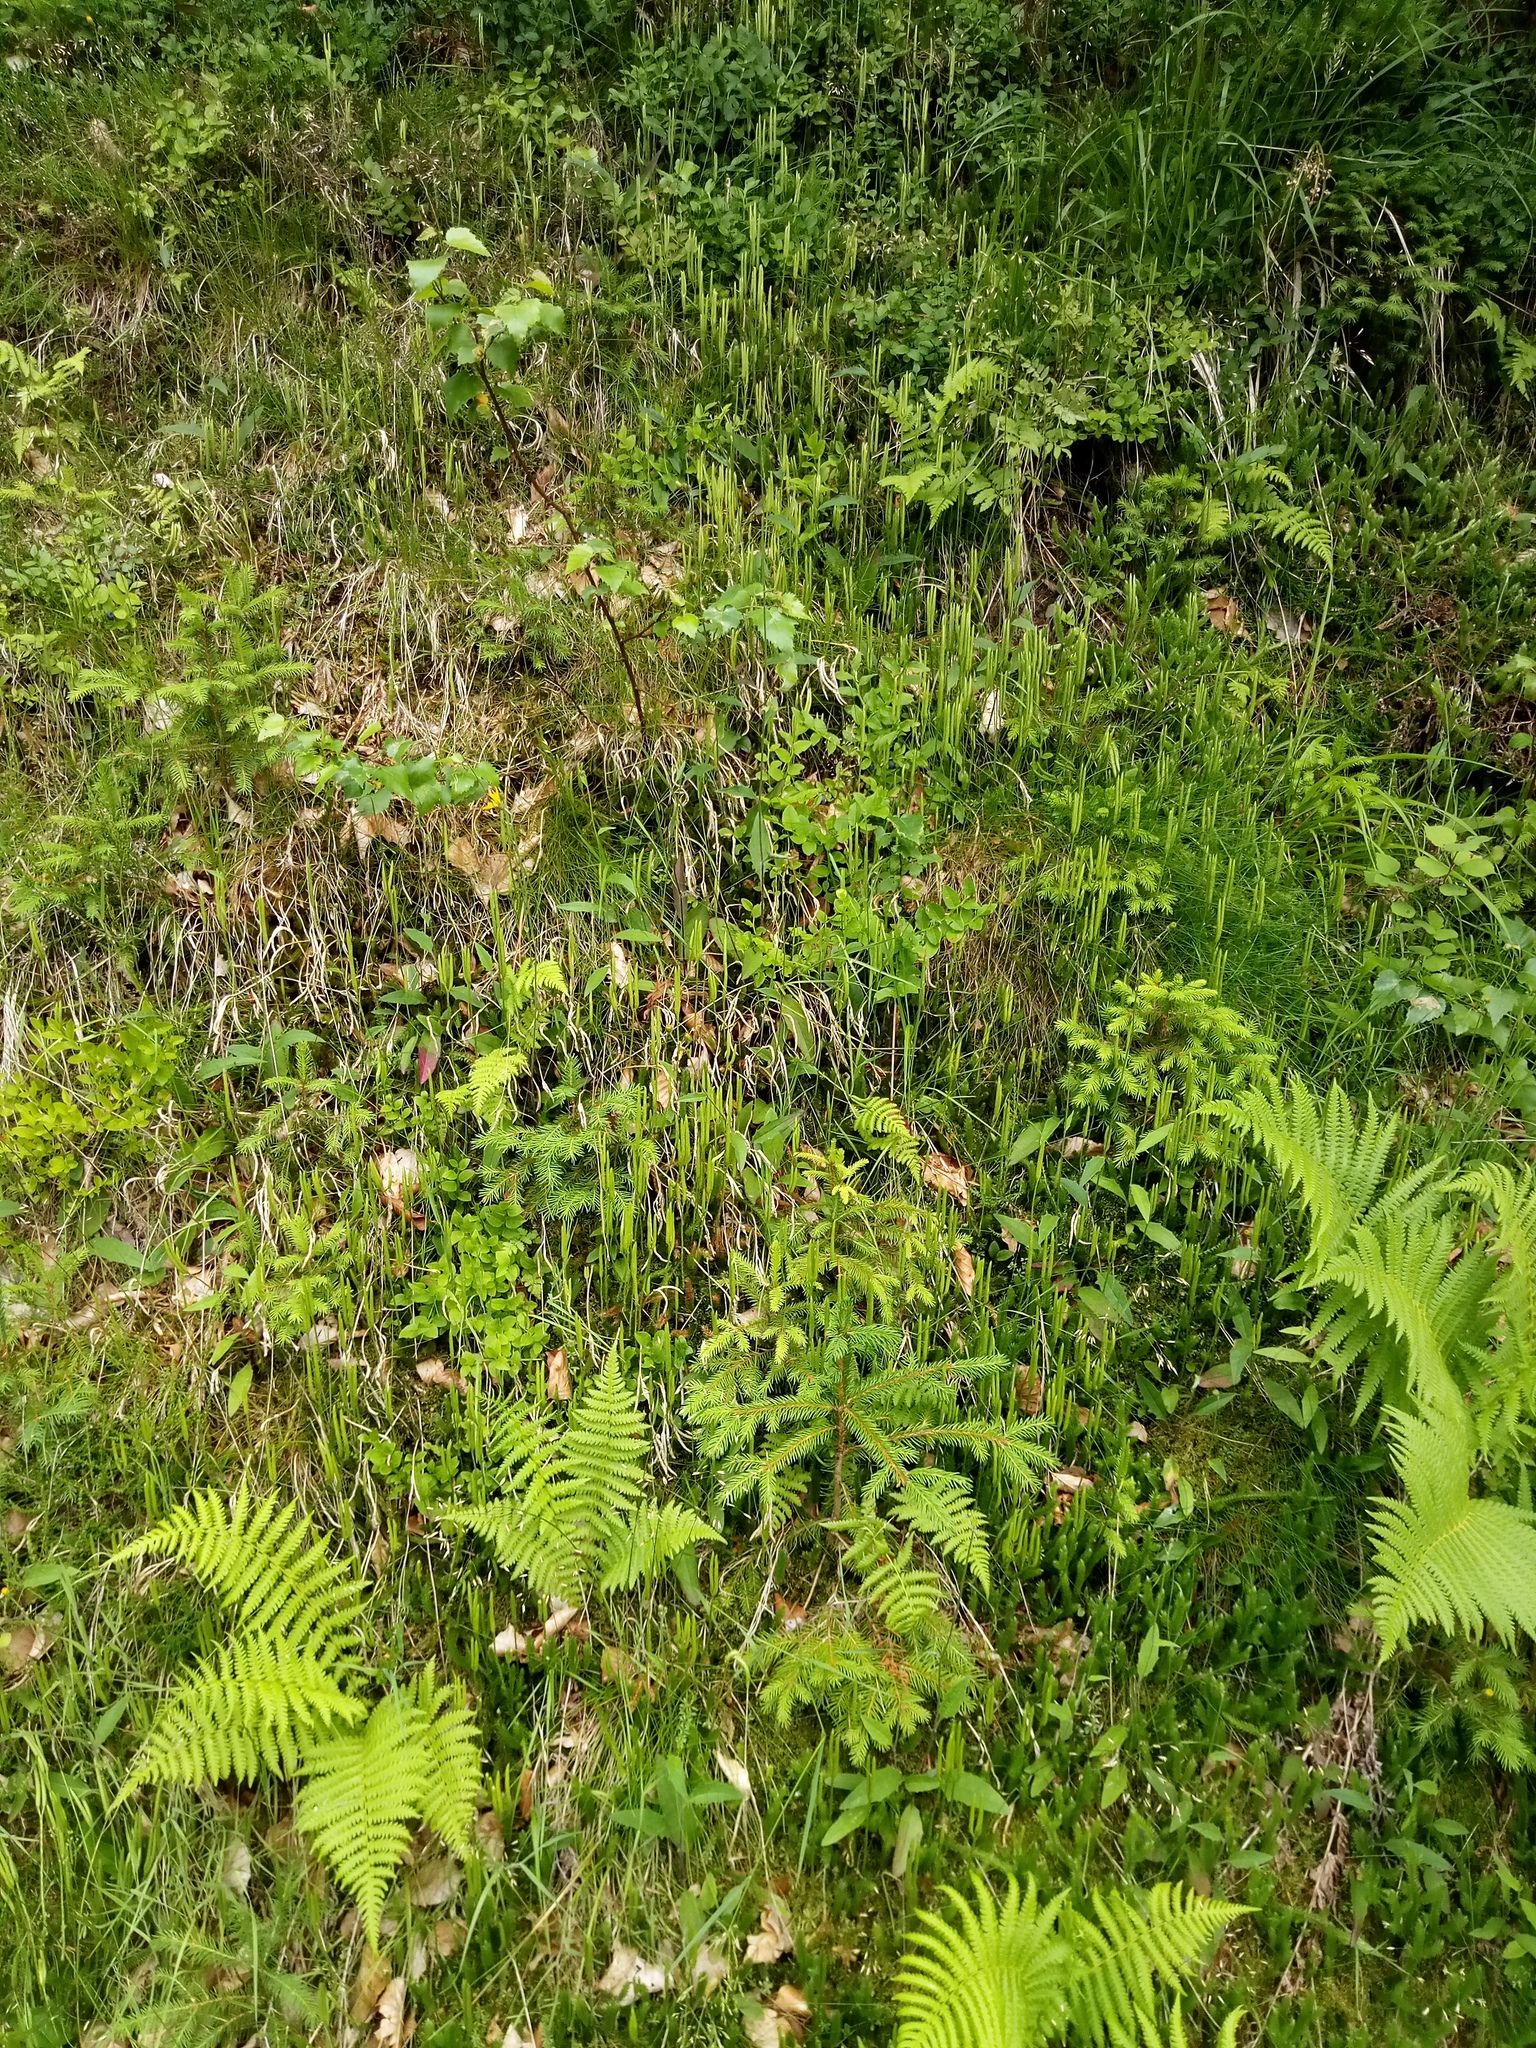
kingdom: Plantae
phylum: Tracheophyta
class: Lycopodiopsida
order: Lycopodiales
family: Lycopodiaceae
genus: Lycopodium
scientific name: Lycopodium clavatum
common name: Stag's-horn clubmoss
